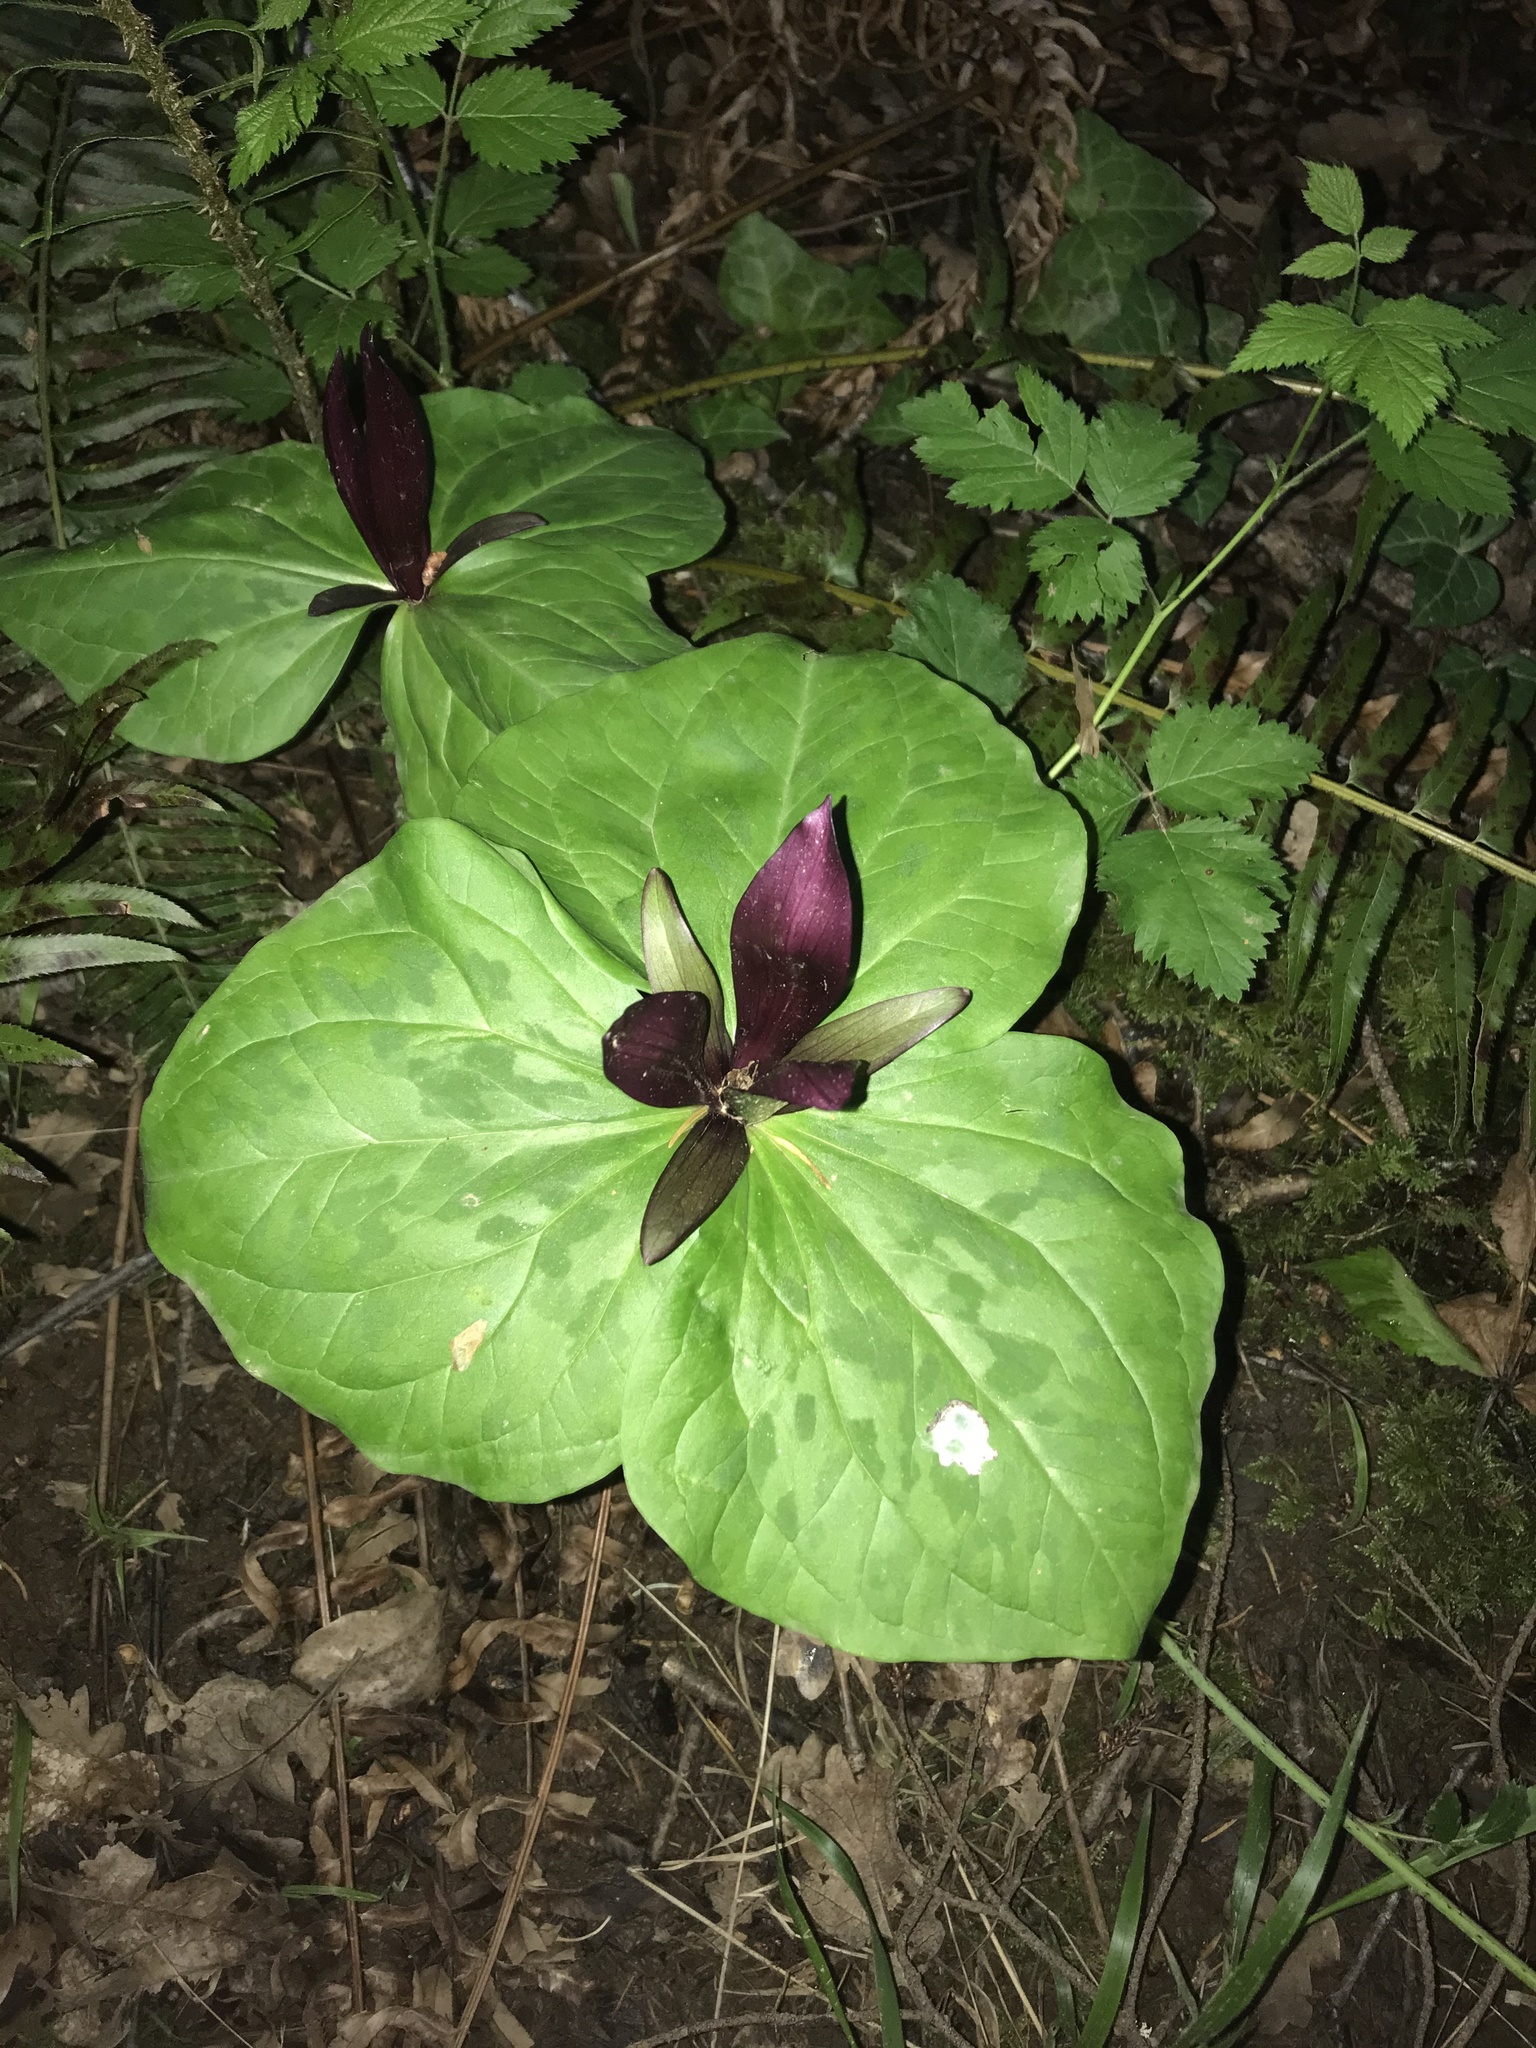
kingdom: Plantae
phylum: Tracheophyta
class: Liliopsida
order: Liliales
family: Melanthiaceae
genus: Trillium
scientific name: Trillium chloropetalum
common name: Giant trillium
